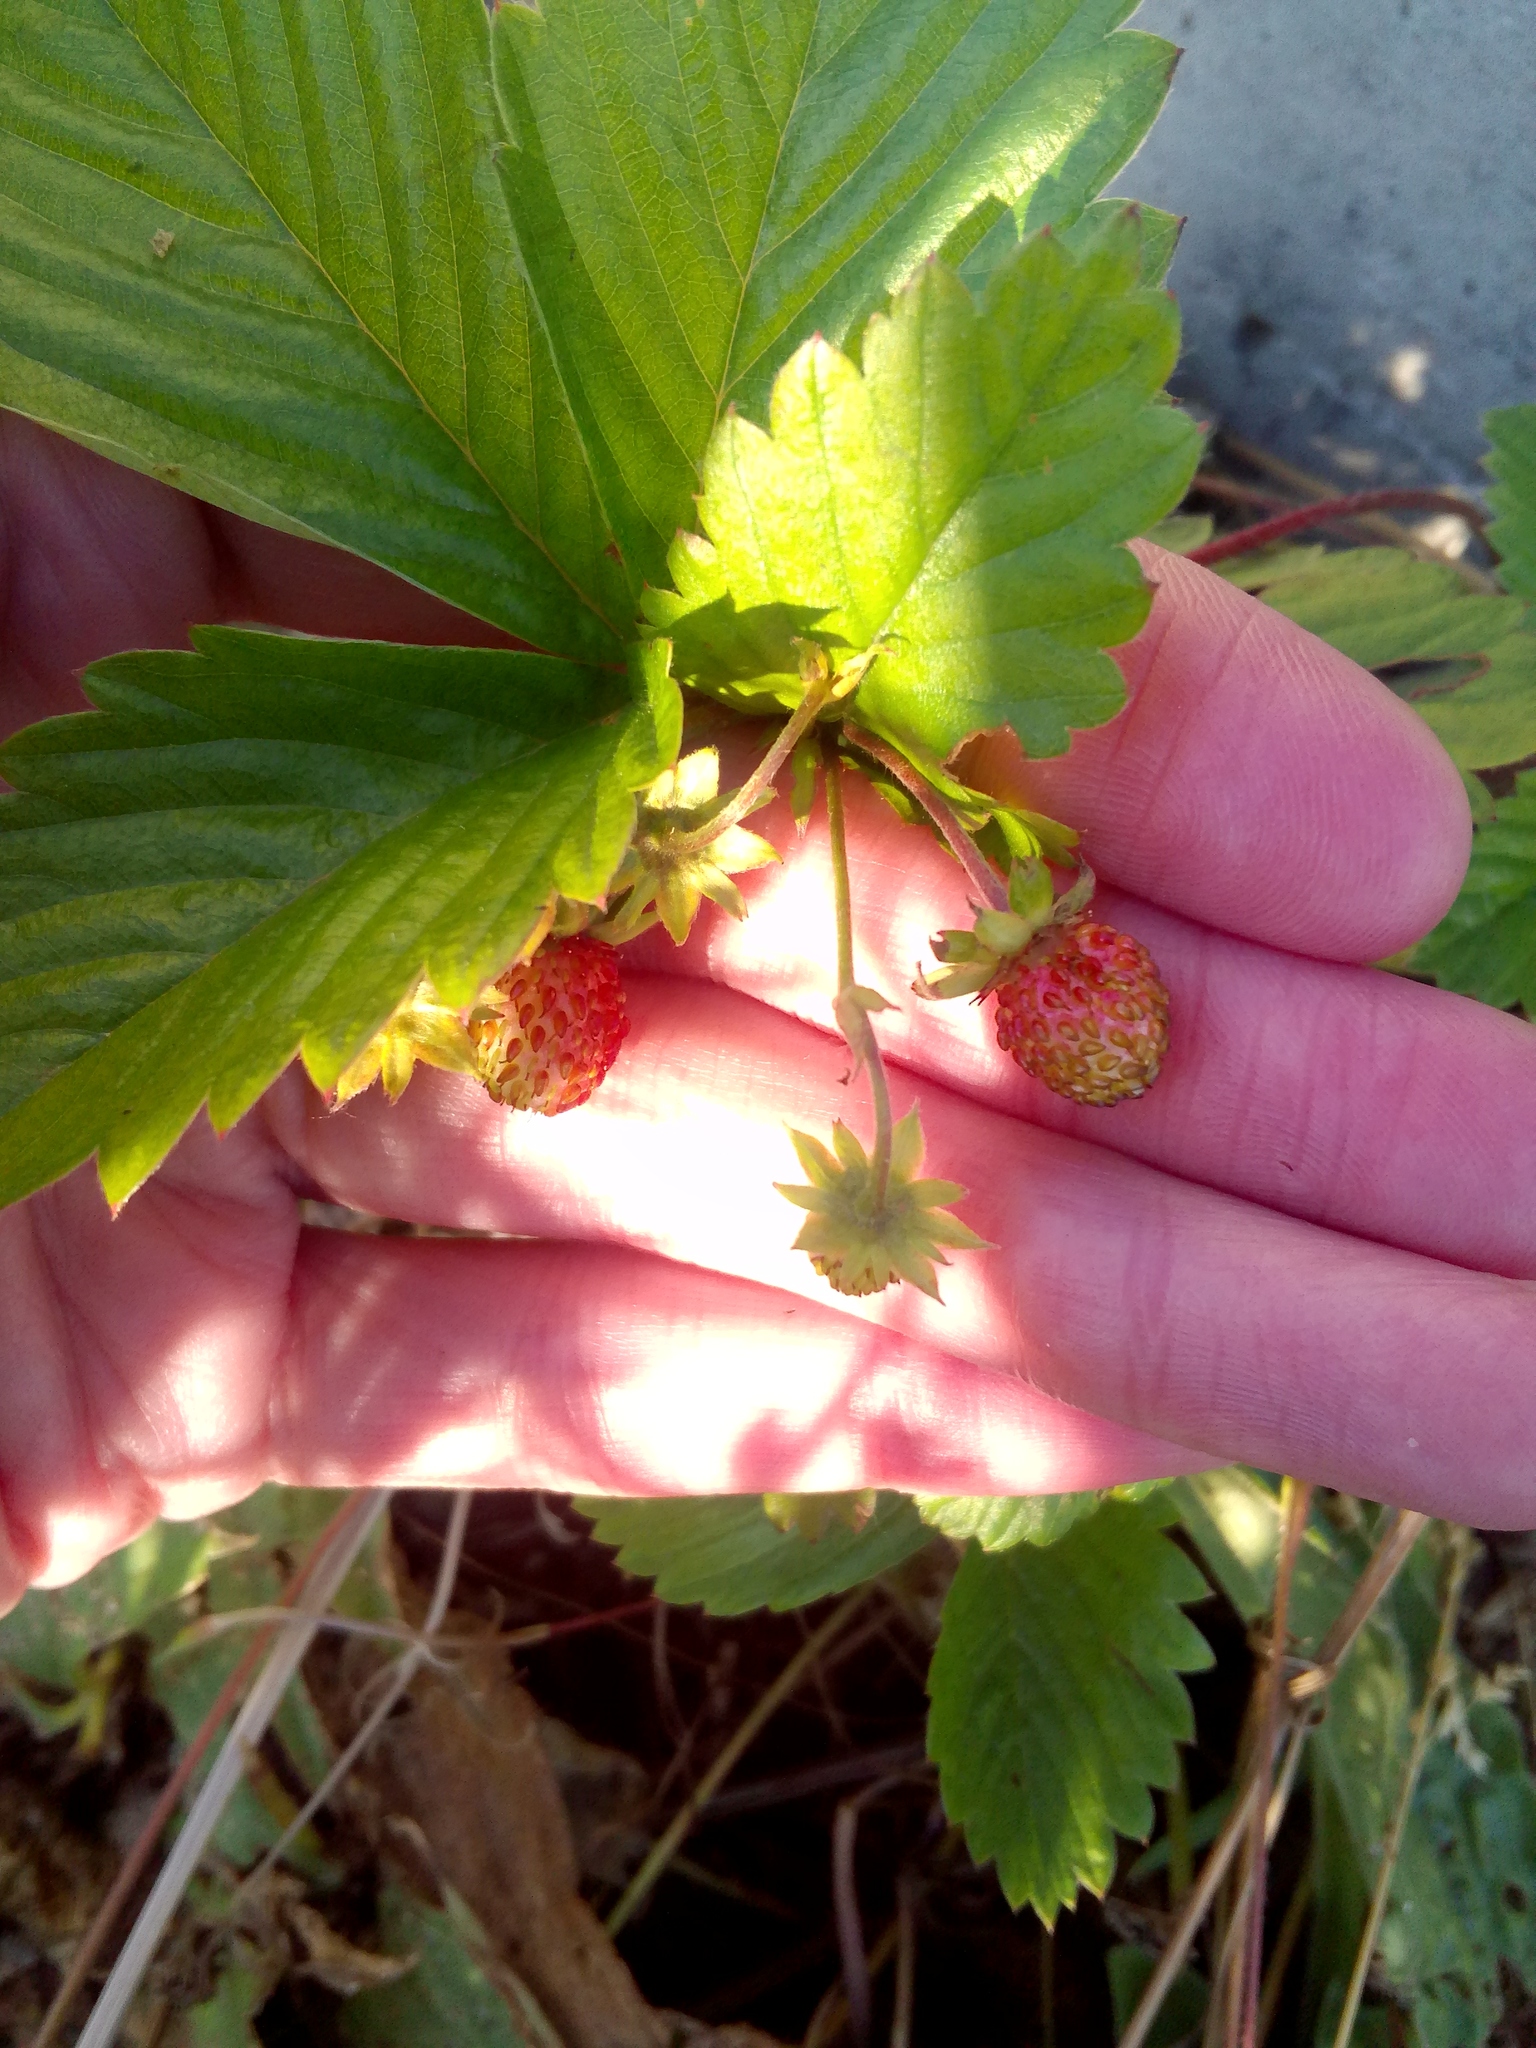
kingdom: Plantae
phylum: Tracheophyta
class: Magnoliopsida
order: Rosales
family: Rosaceae
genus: Fragaria
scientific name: Fragaria vesca
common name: Wild strawberry
